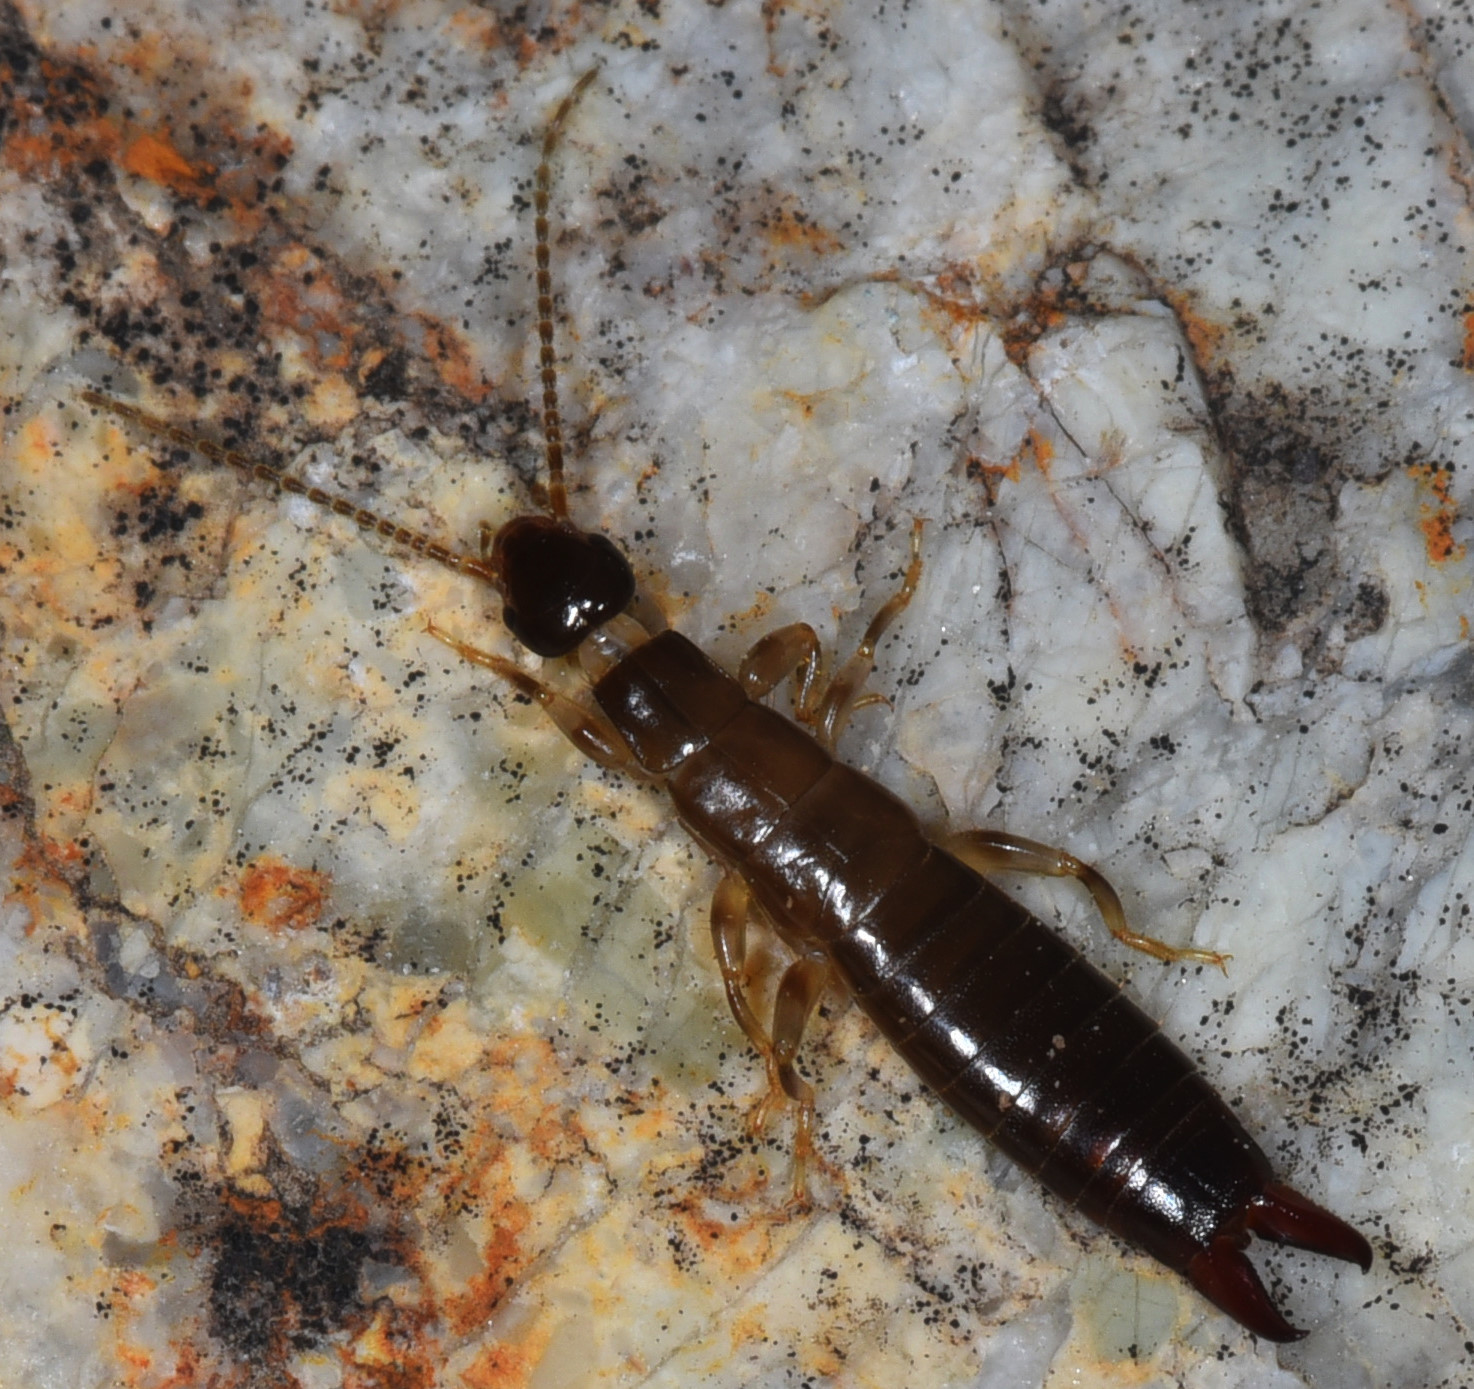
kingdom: Animalia
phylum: Arthropoda
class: Insecta
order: Dermaptera
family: Anisolabididae
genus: Euborellia
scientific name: Euborellia annulipes
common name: Ringlegged earwig
